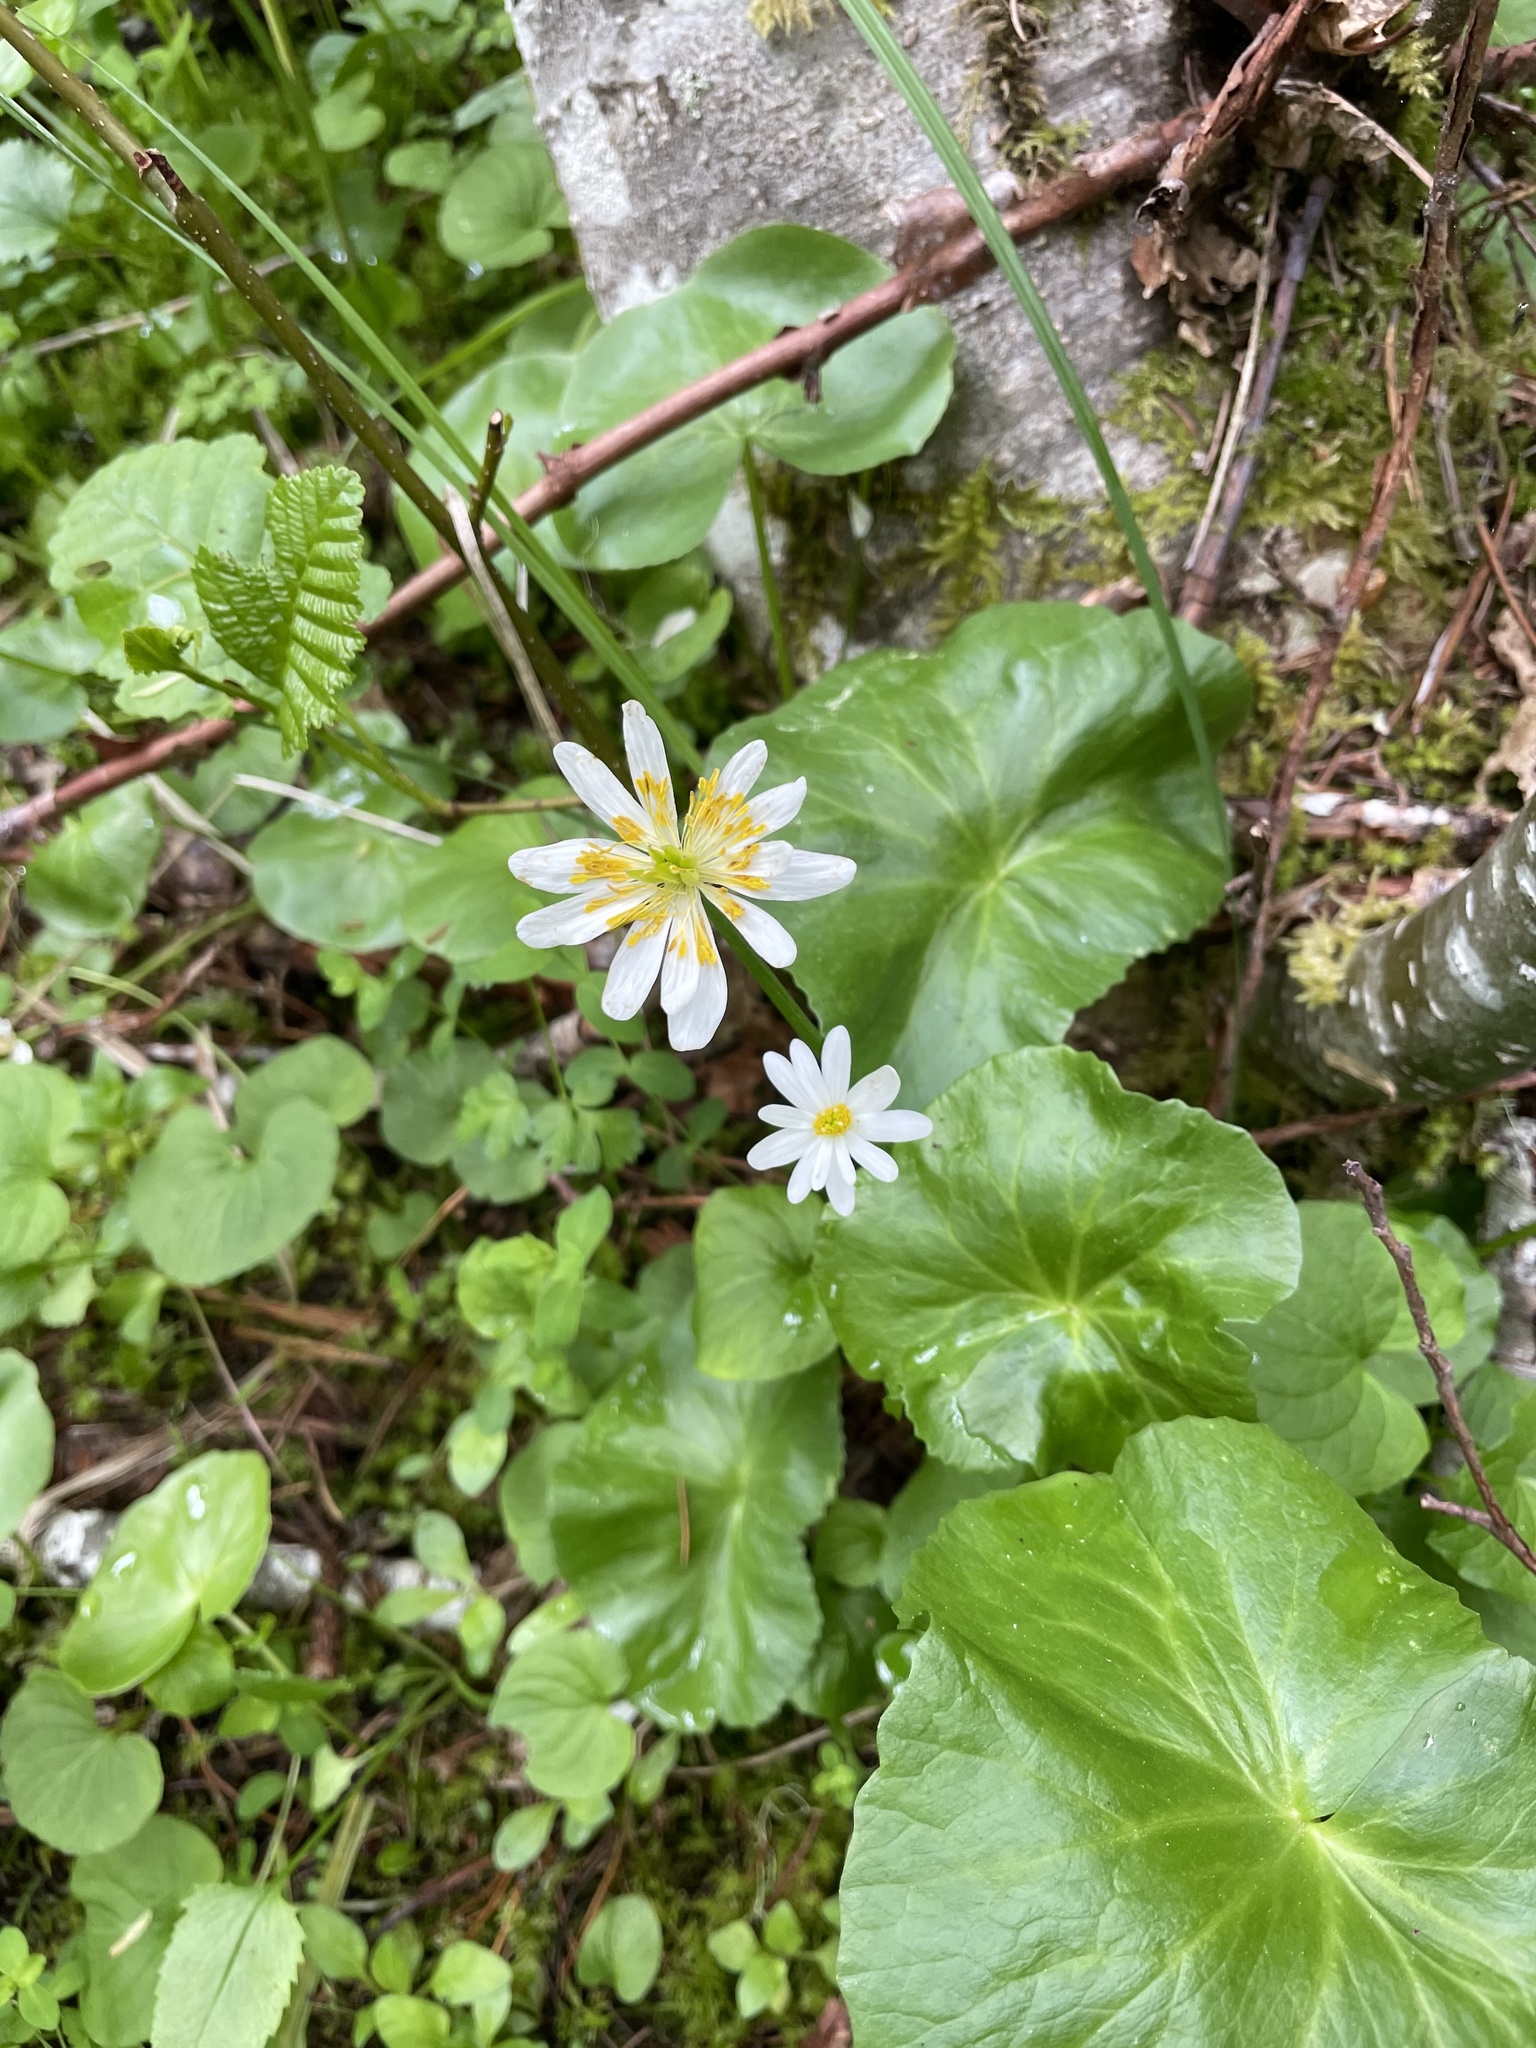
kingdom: Plantae
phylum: Tracheophyta
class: Magnoliopsida
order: Ranunculales
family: Ranunculaceae
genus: Caltha
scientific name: Caltha leptosepala
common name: Elkslip
